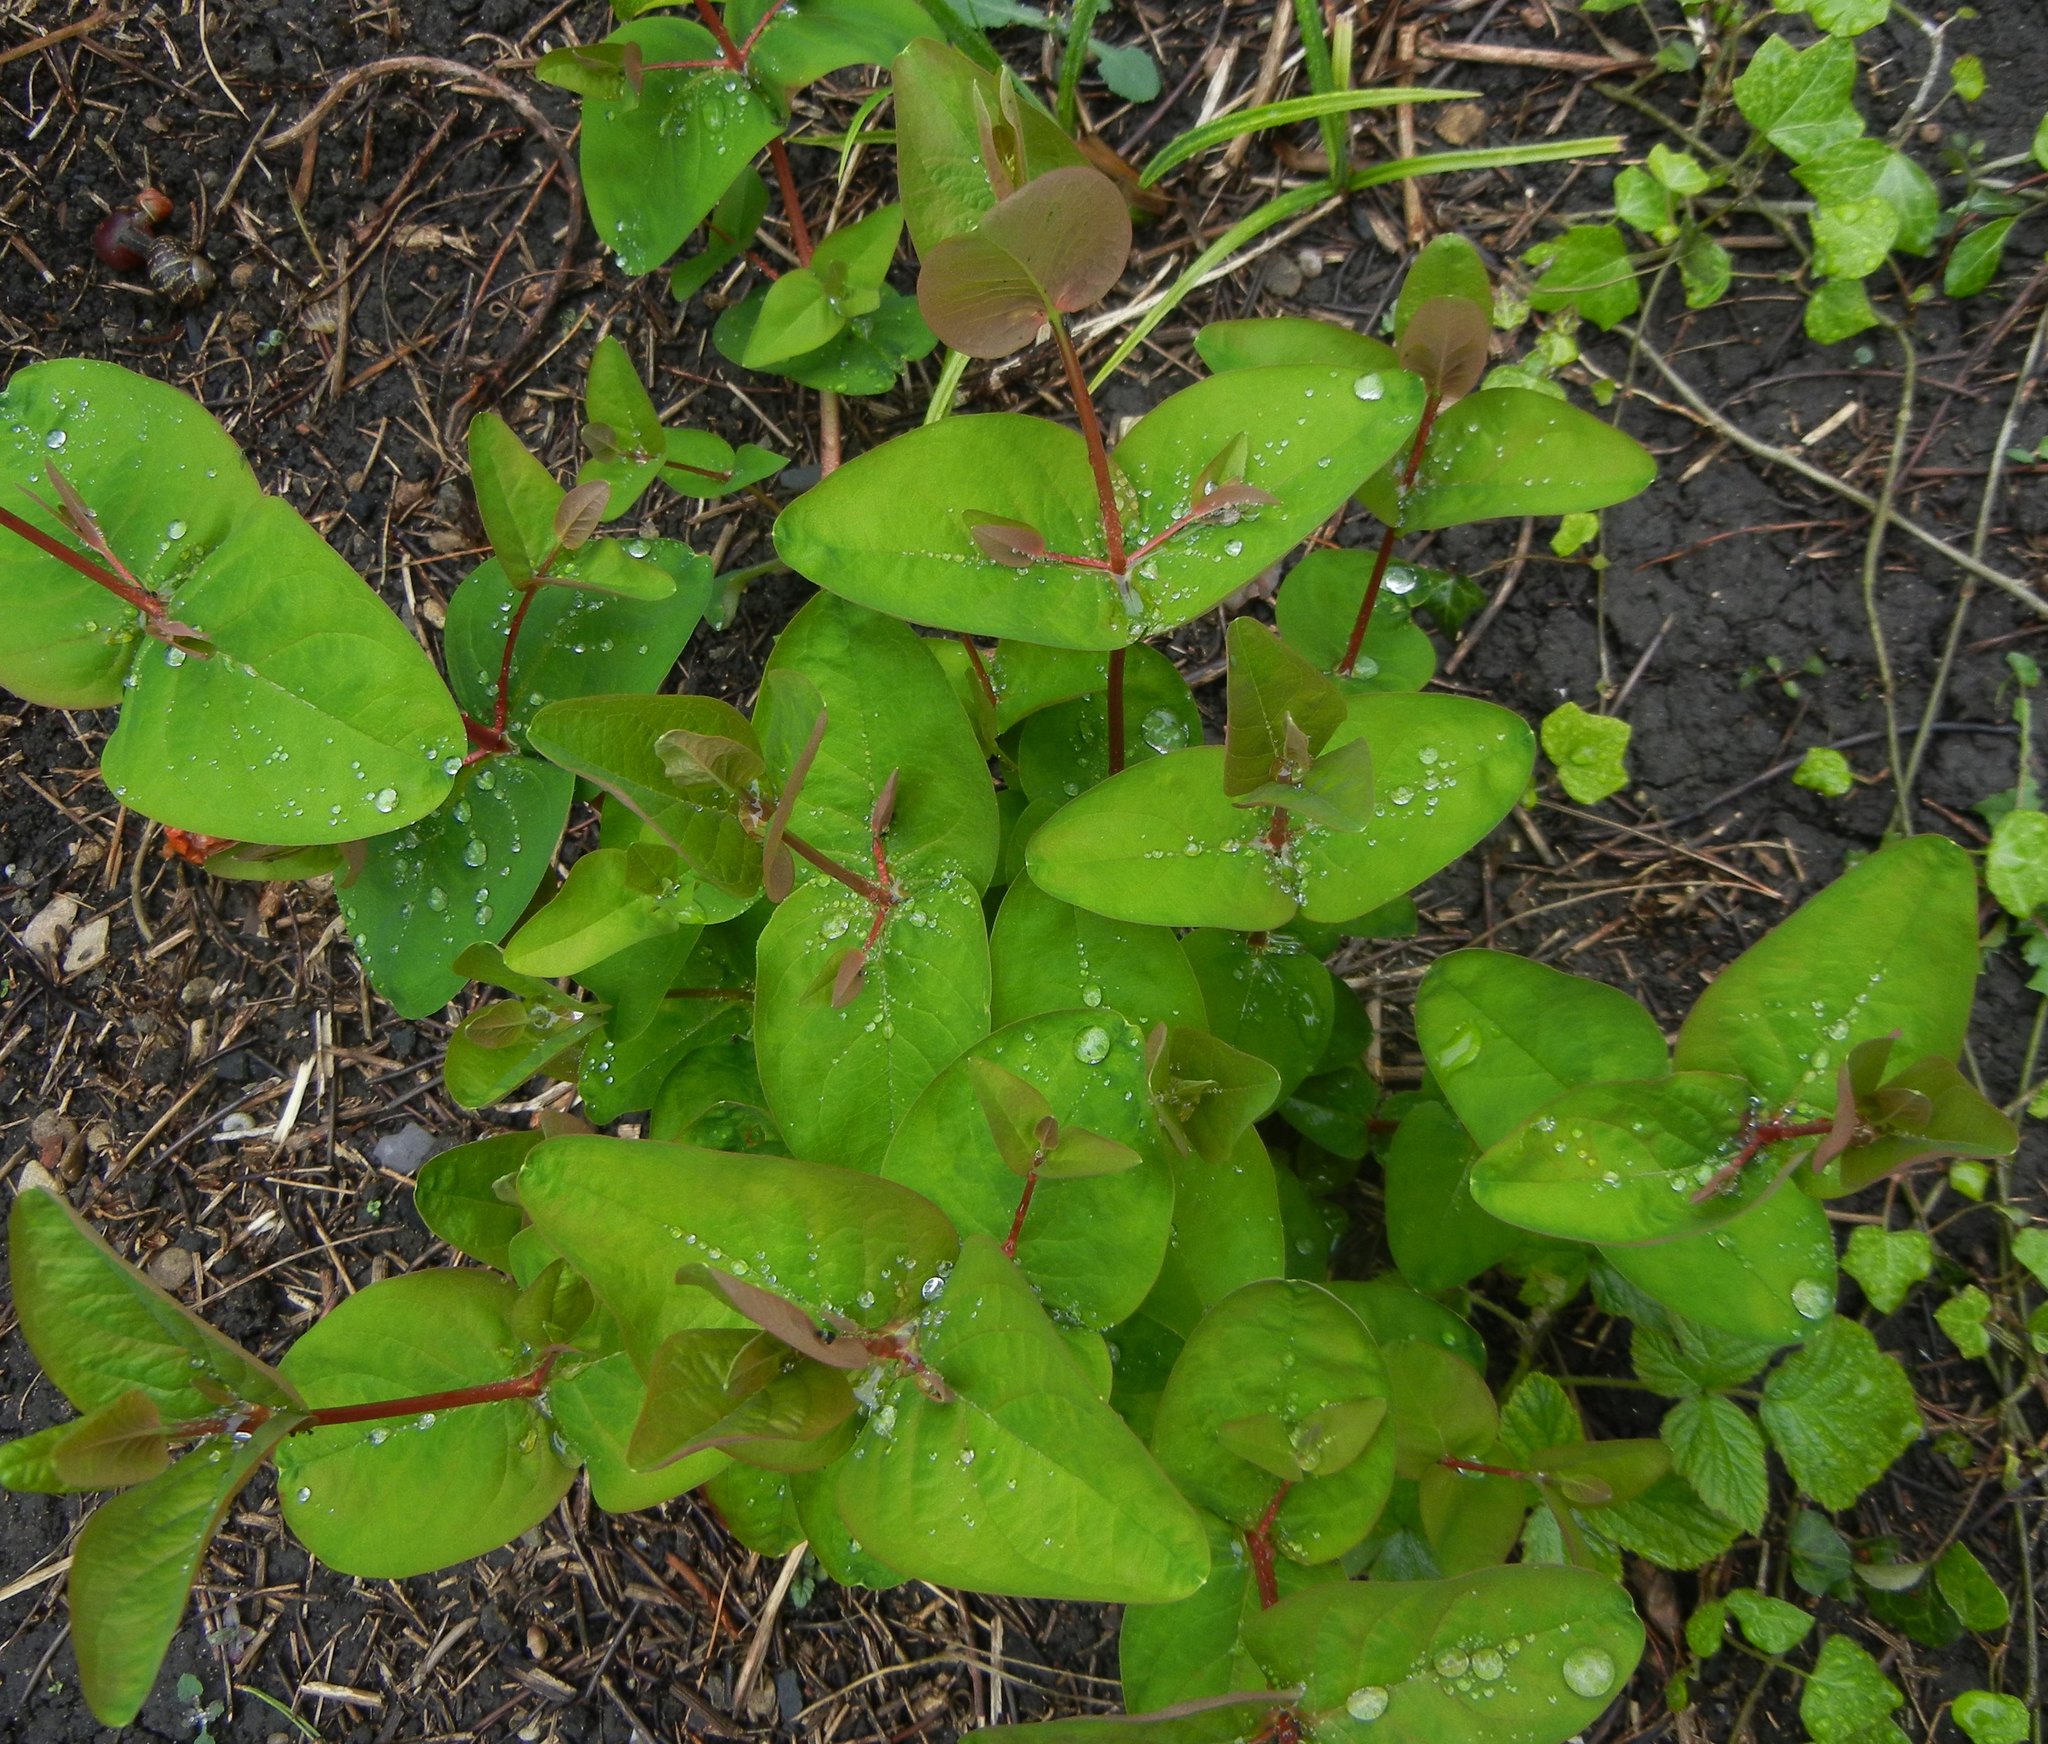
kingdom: Plantae
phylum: Tracheophyta
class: Magnoliopsida
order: Malpighiales
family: Hypericaceae
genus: Hypericum
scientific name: Hypericum androsaemum
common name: Sweet-amber
